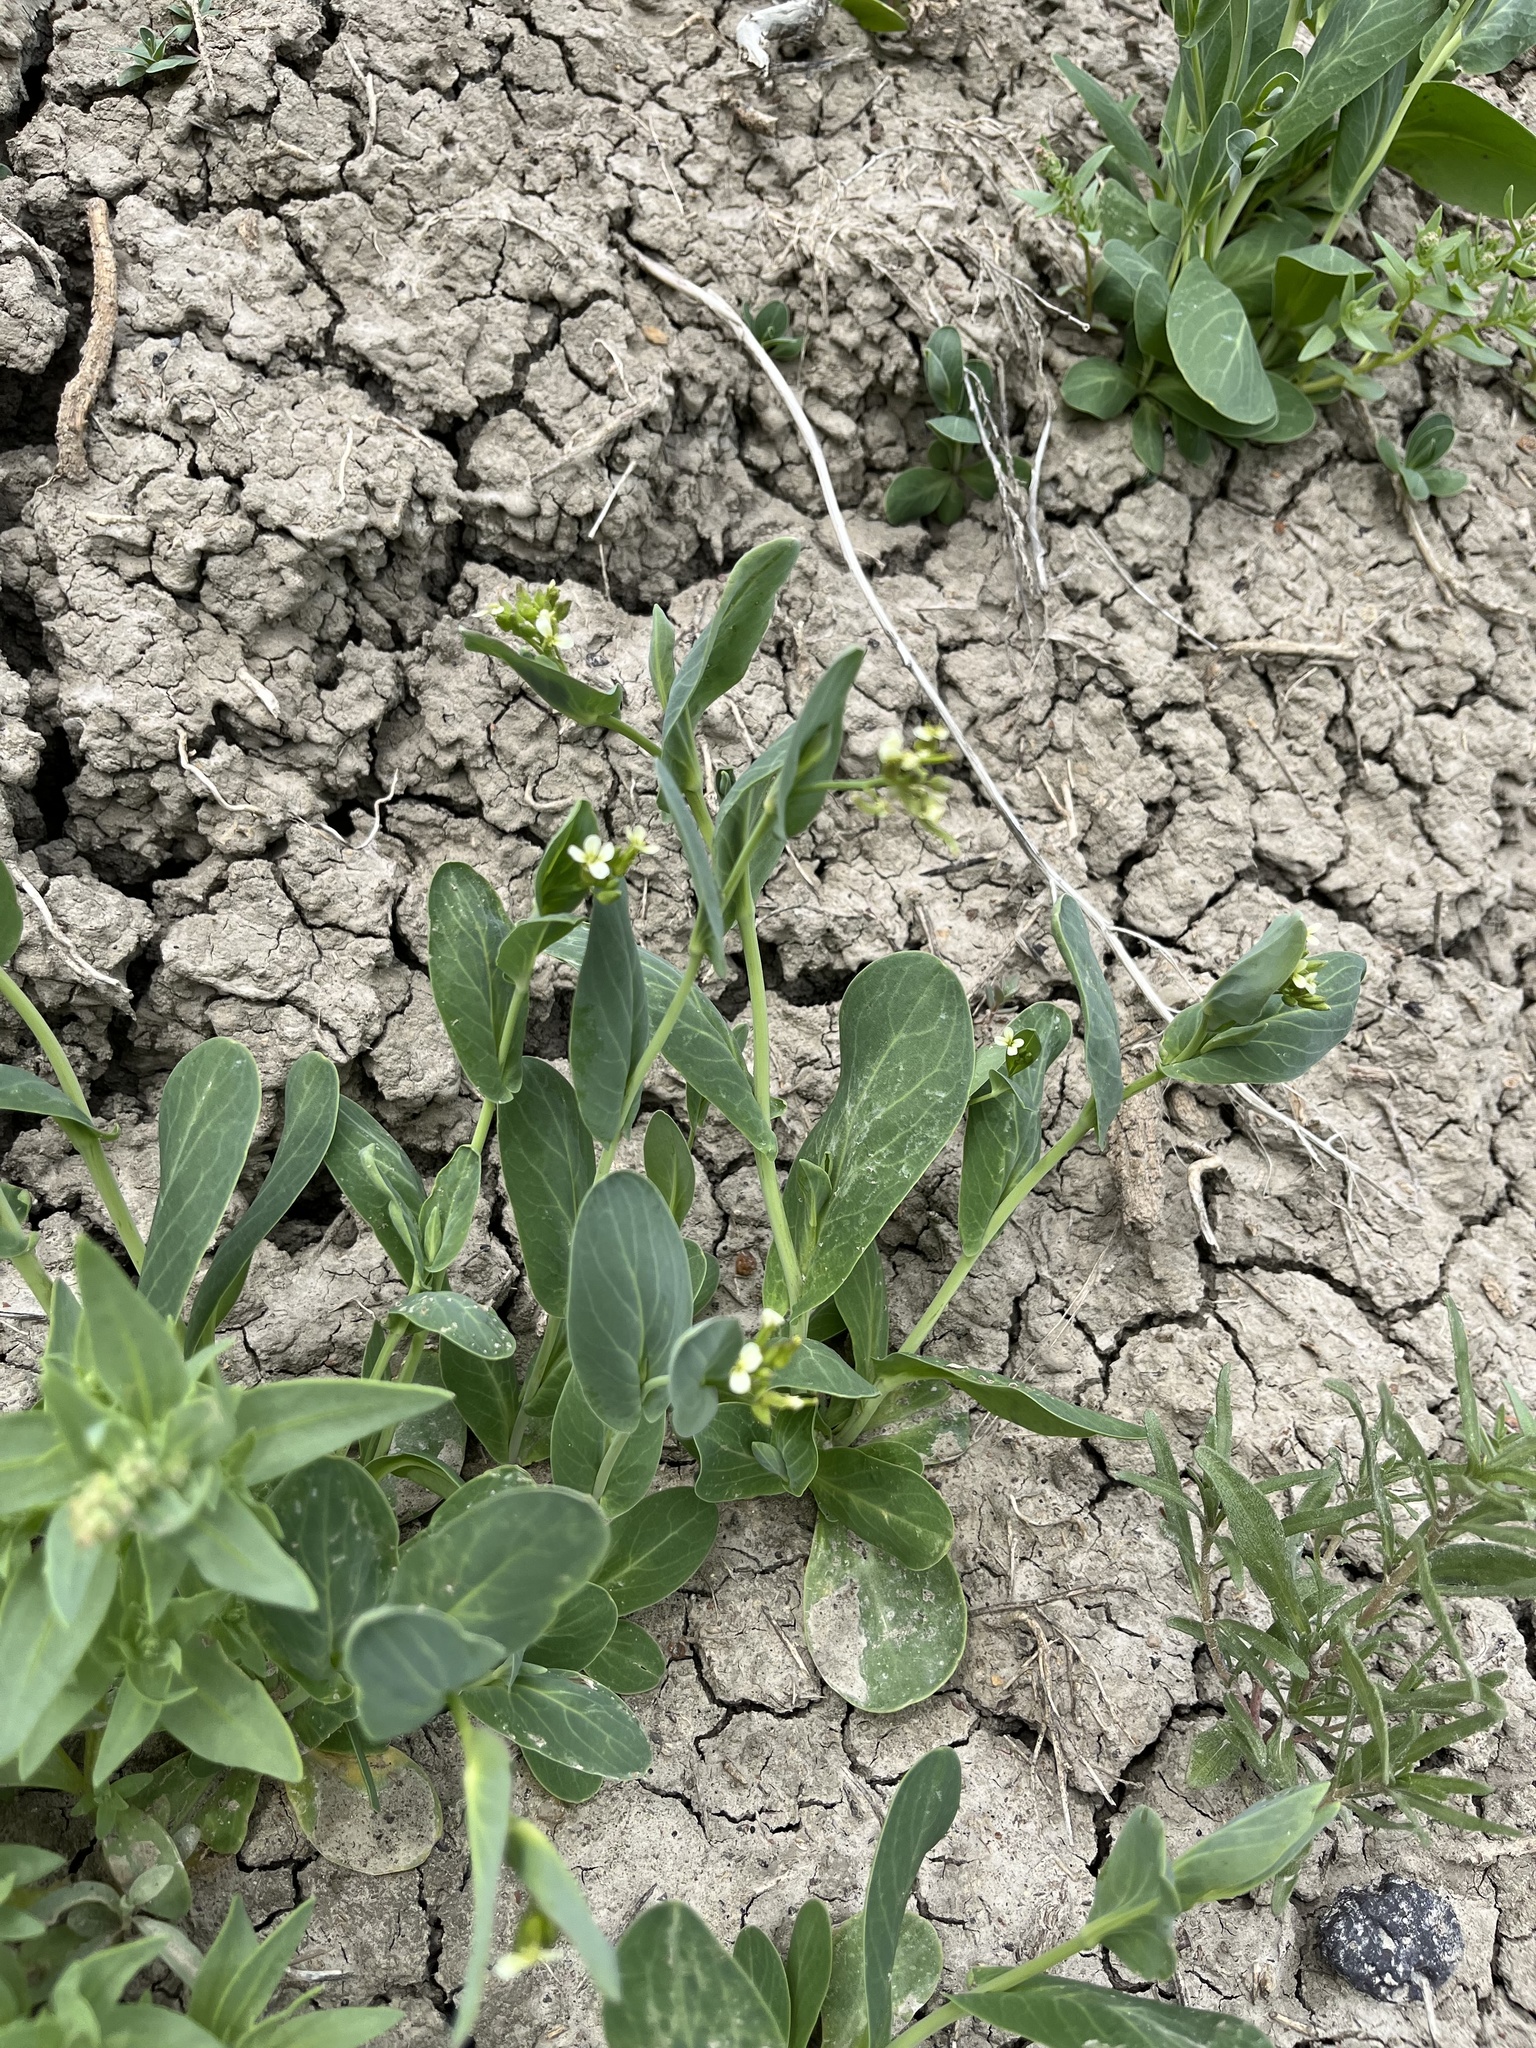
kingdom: Plantae
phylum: Tracheophyta
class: Magnoliopsida
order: Brassicales
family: Brassicaceae
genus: Conringia
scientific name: Conringia orientalis
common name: Hare's ear mustard
